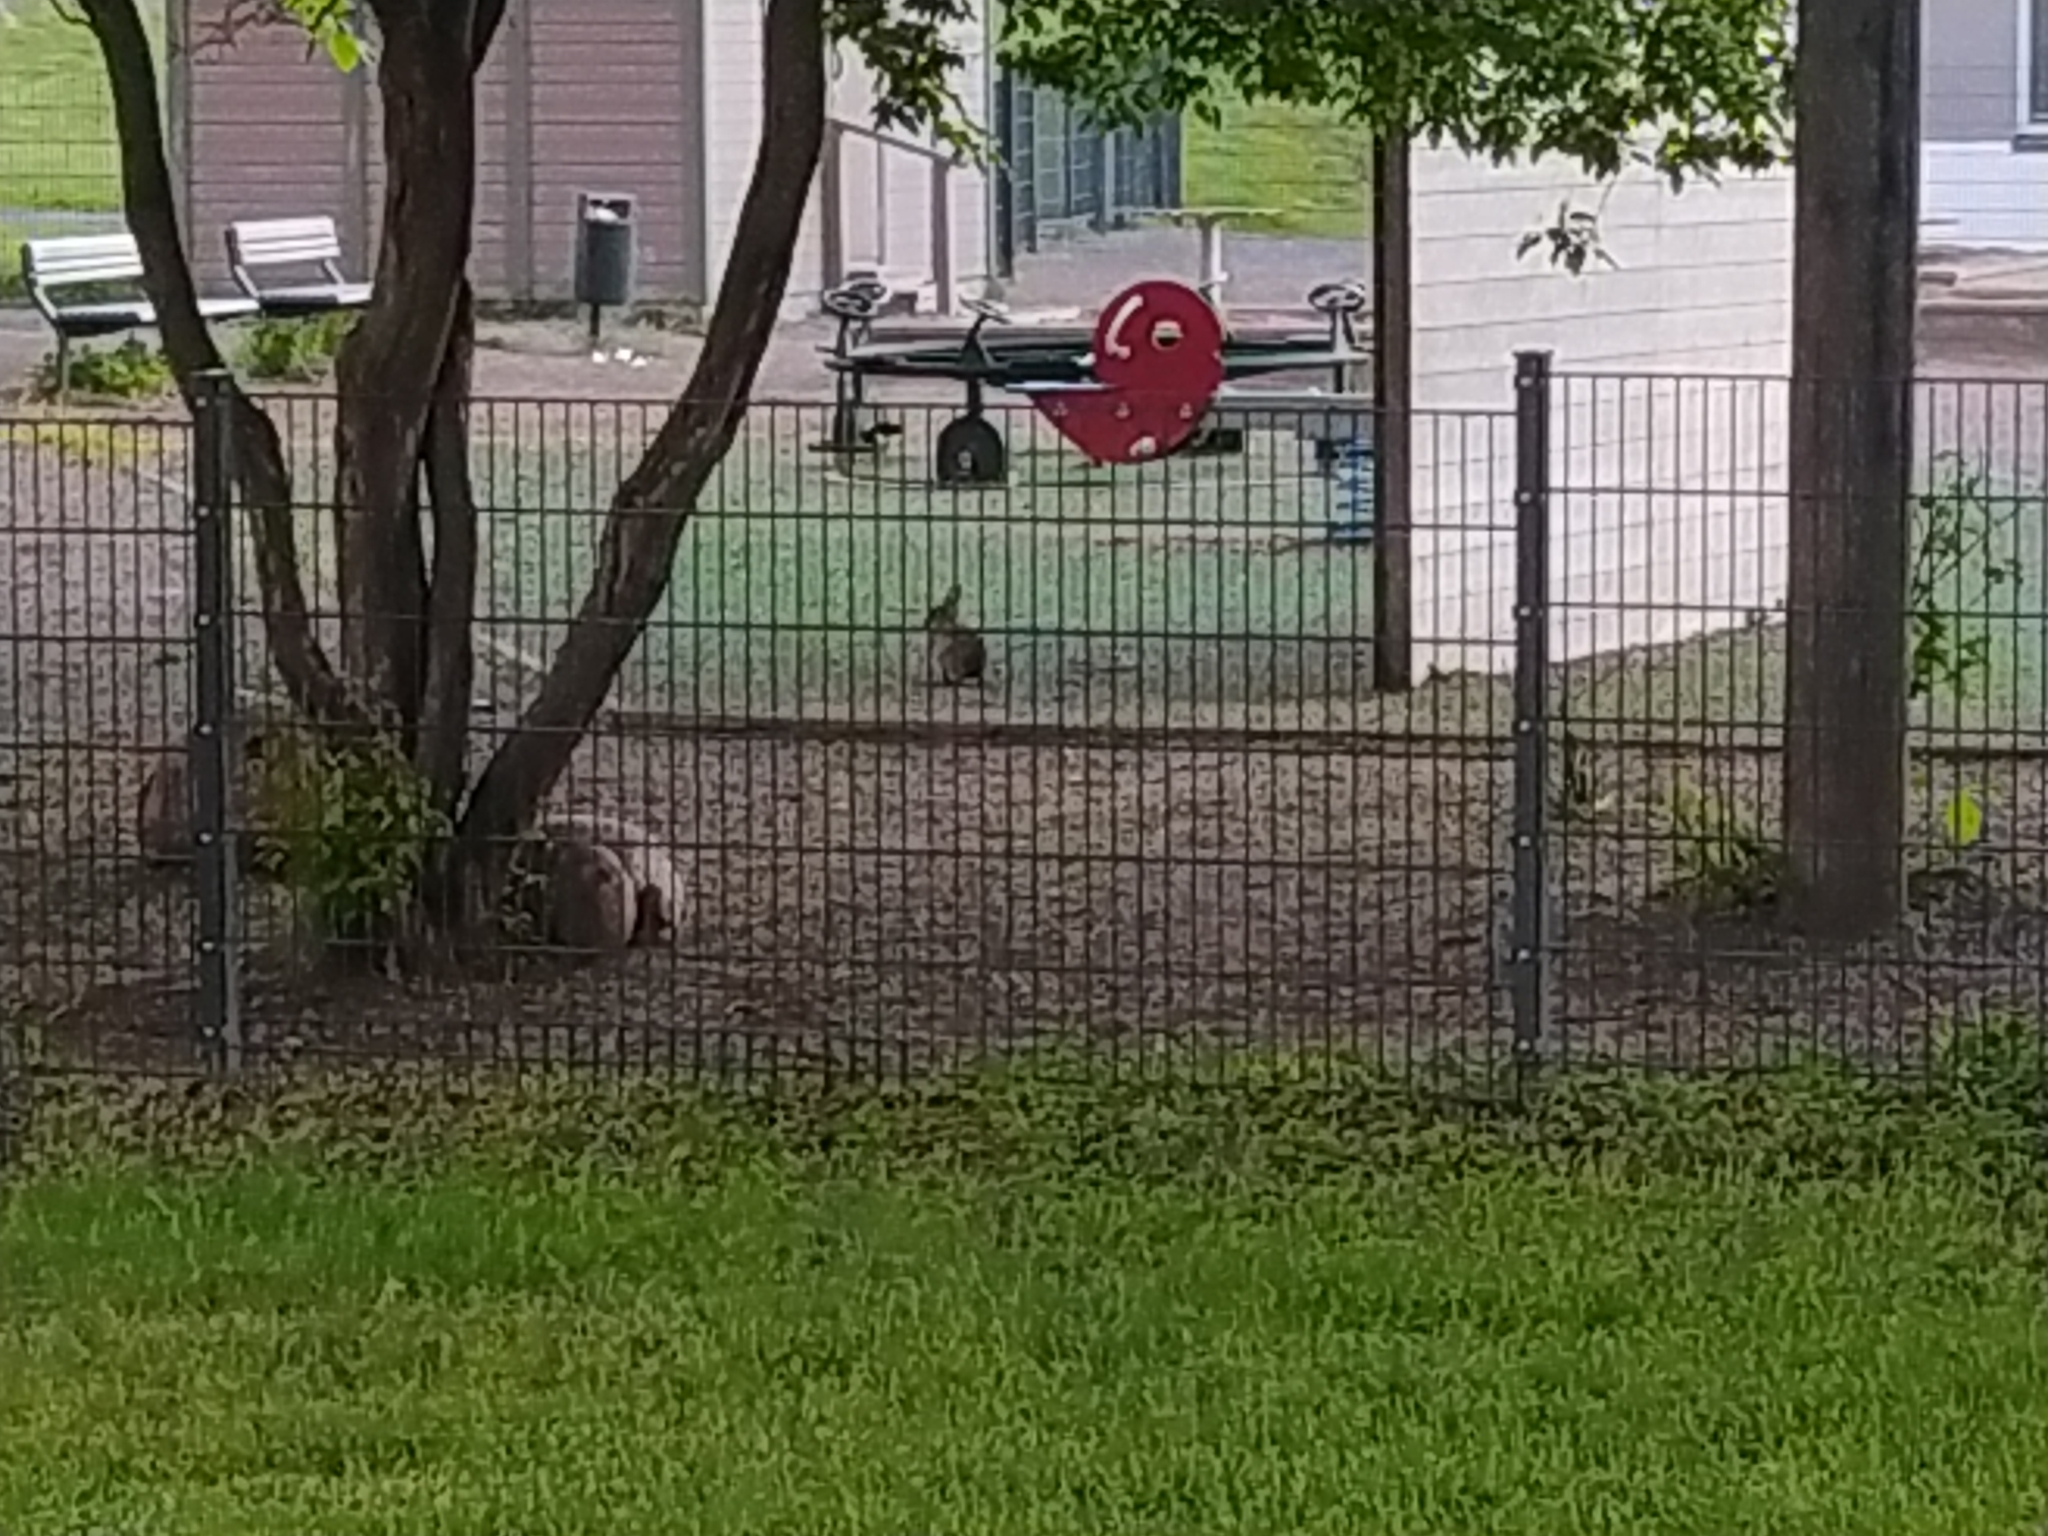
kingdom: Animalia
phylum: Chordata
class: Mammalia
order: Lagomorpha
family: Leporidae
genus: Oryctolagus
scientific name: Oryctolagus cuniculus
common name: European rabbit
